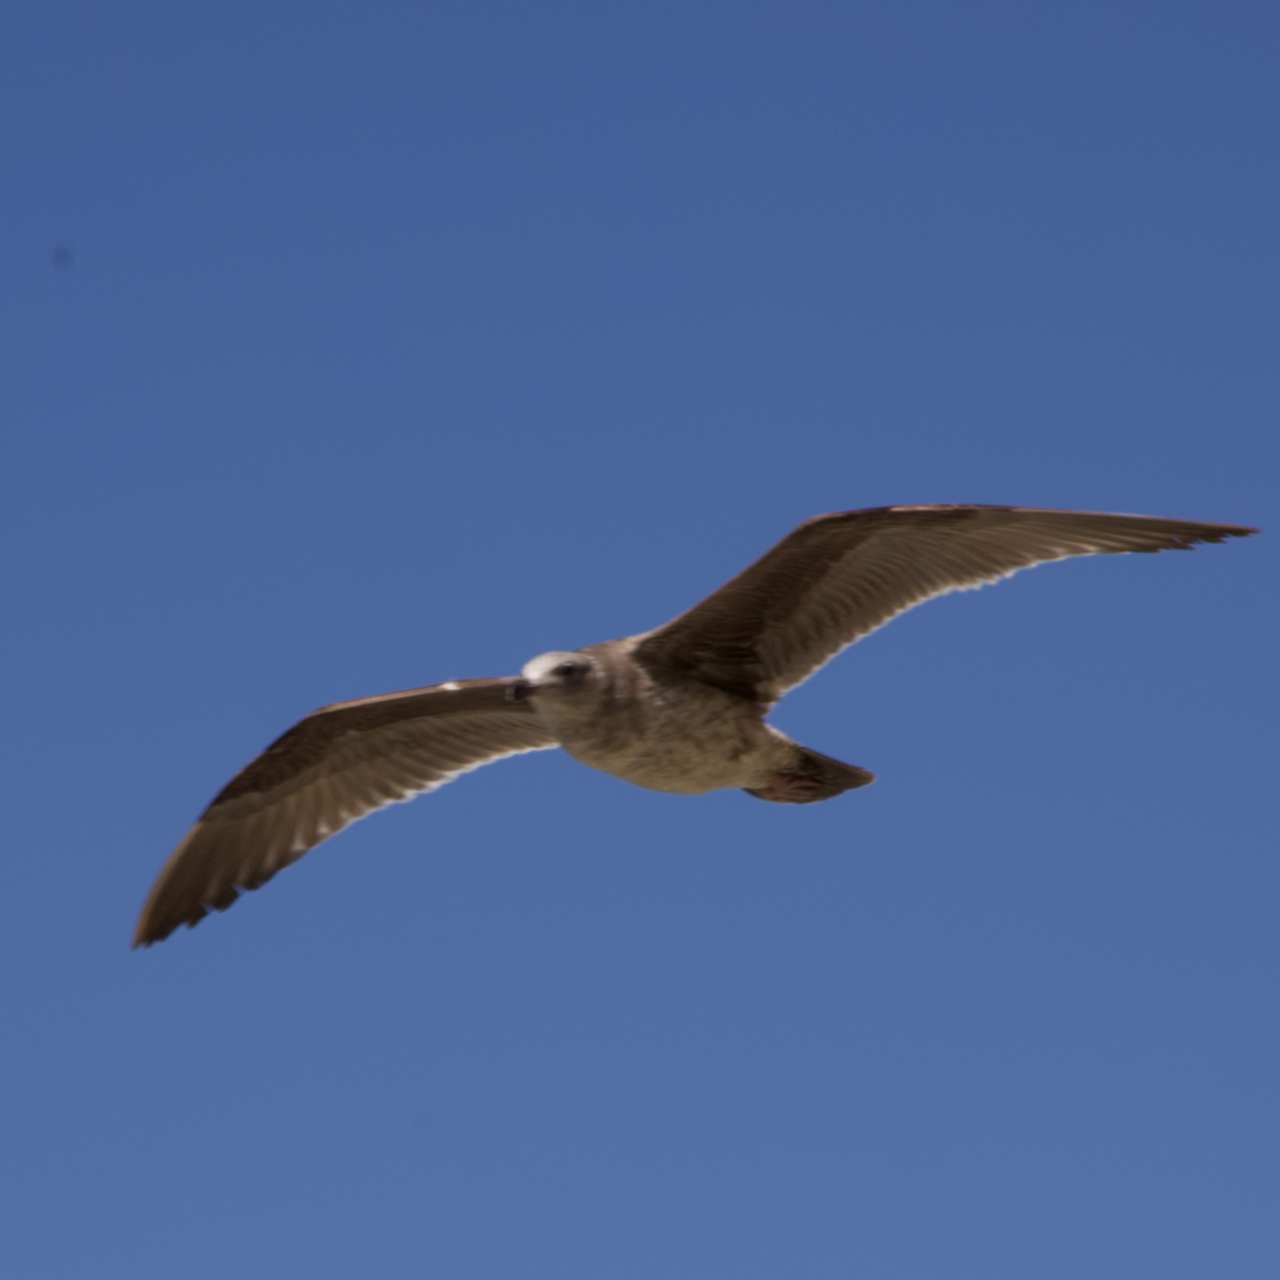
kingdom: Animalia
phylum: Chordata
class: Aves
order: Charadriiformes
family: Laridae
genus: Larus
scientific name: Larus occidentalis
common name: Western gull
